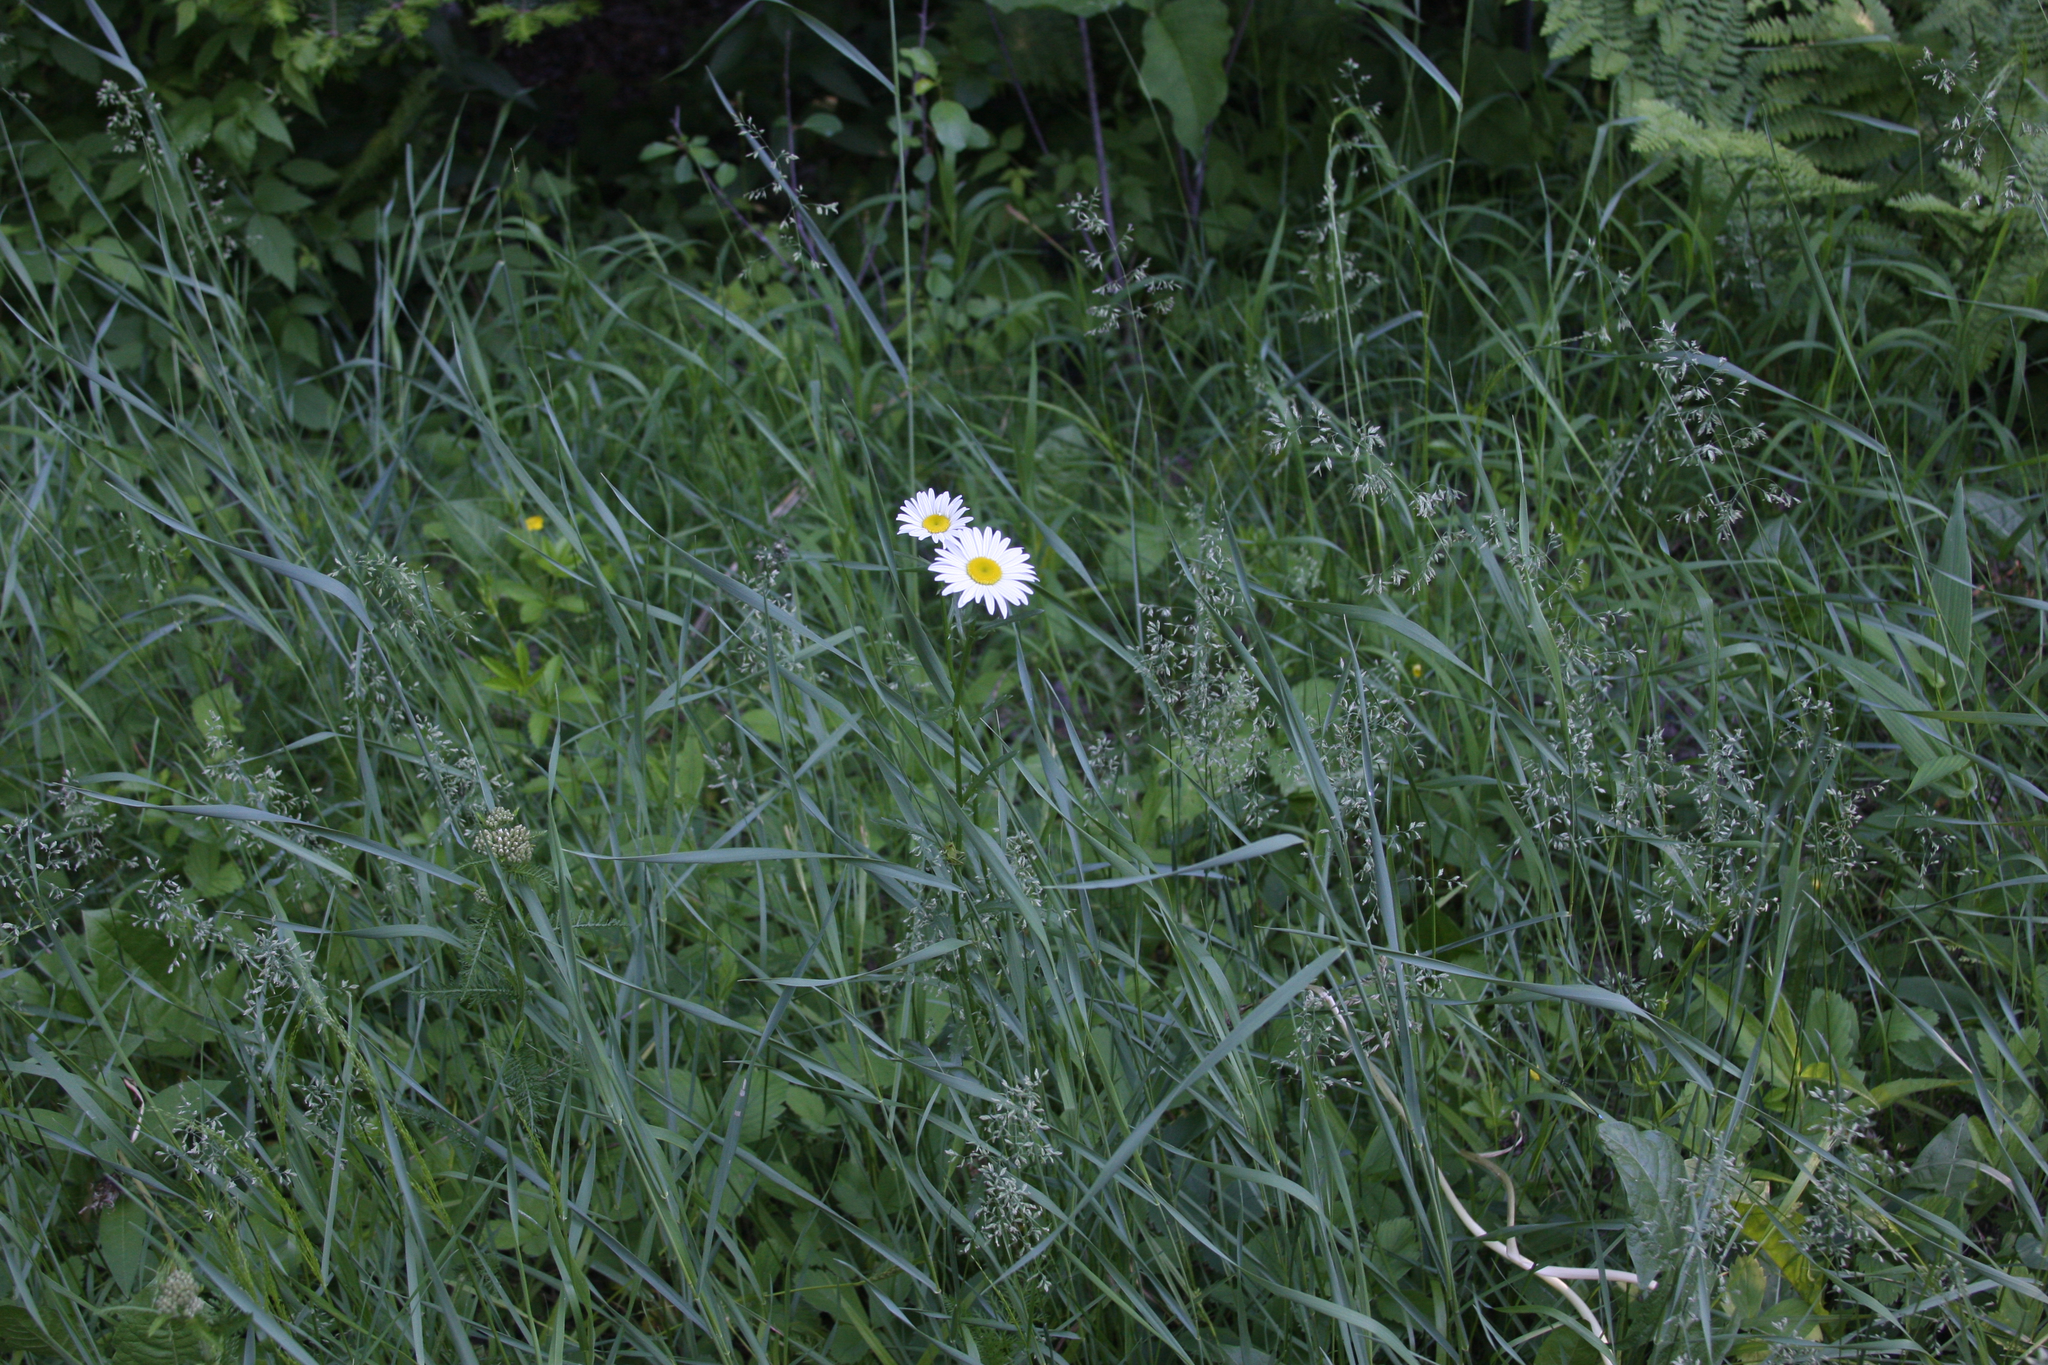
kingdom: Plantae
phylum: Tracheophyta
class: Magnoliopsida
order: Asterales
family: Asteraceae
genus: Leucanthemum
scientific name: Leucanthemum vulgare
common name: Oxeye daisy
